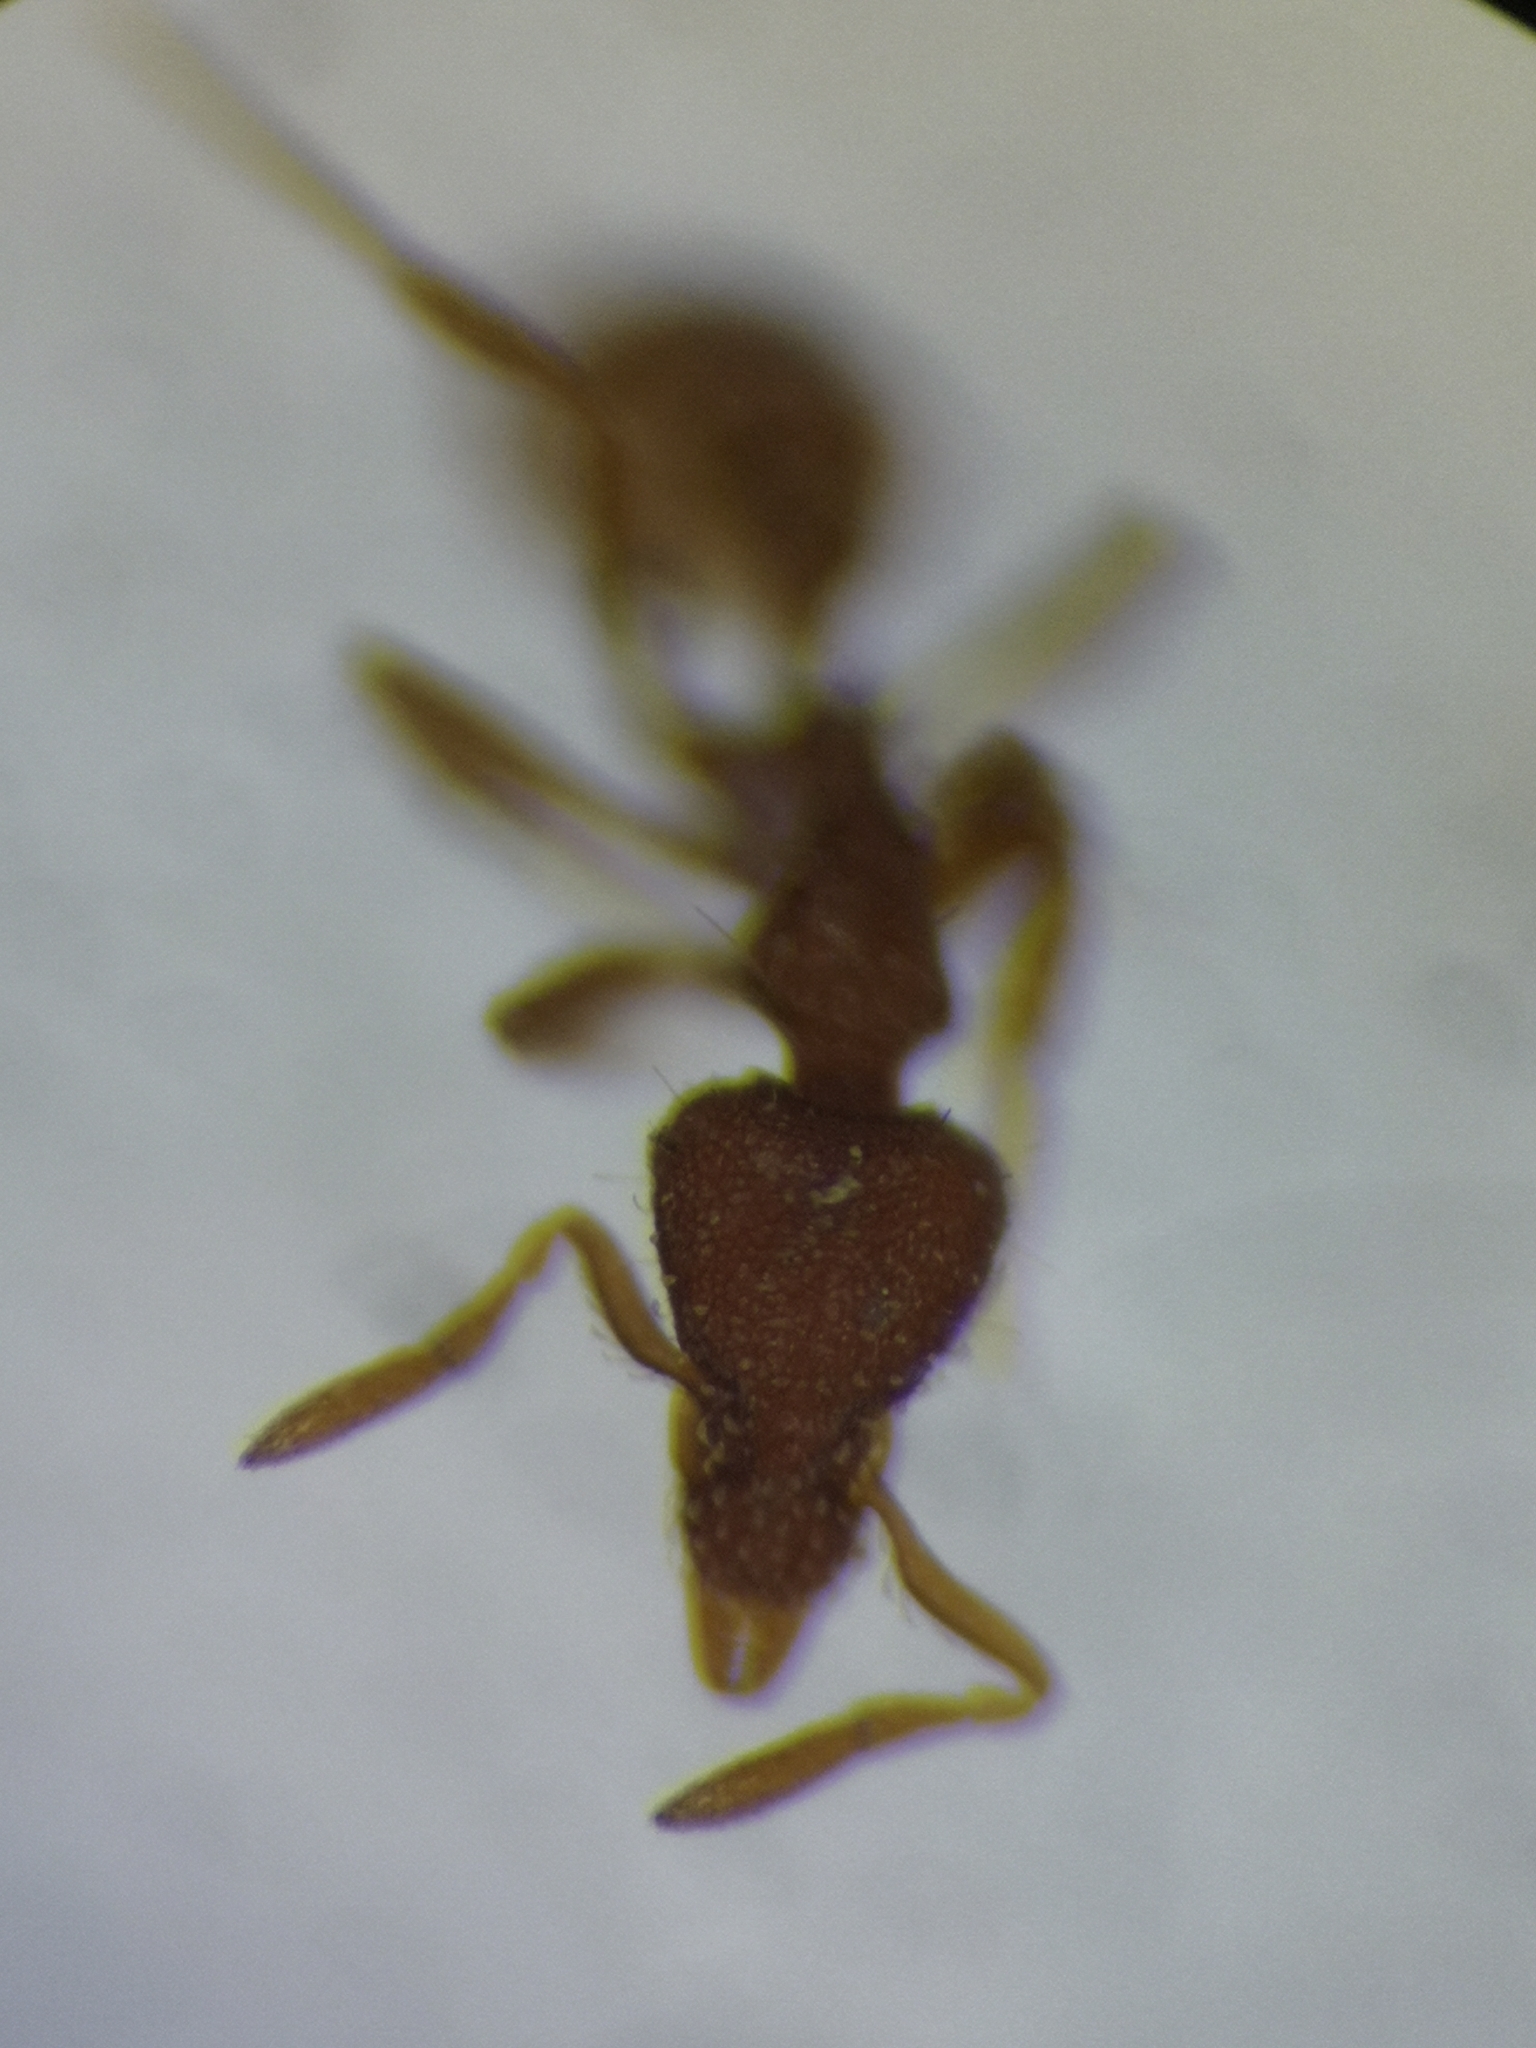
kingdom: Animalia
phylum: Arthropoda
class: Insecta
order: Hymenoptera
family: Formicidae
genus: Pyramica
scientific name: Pyramica baudueri
